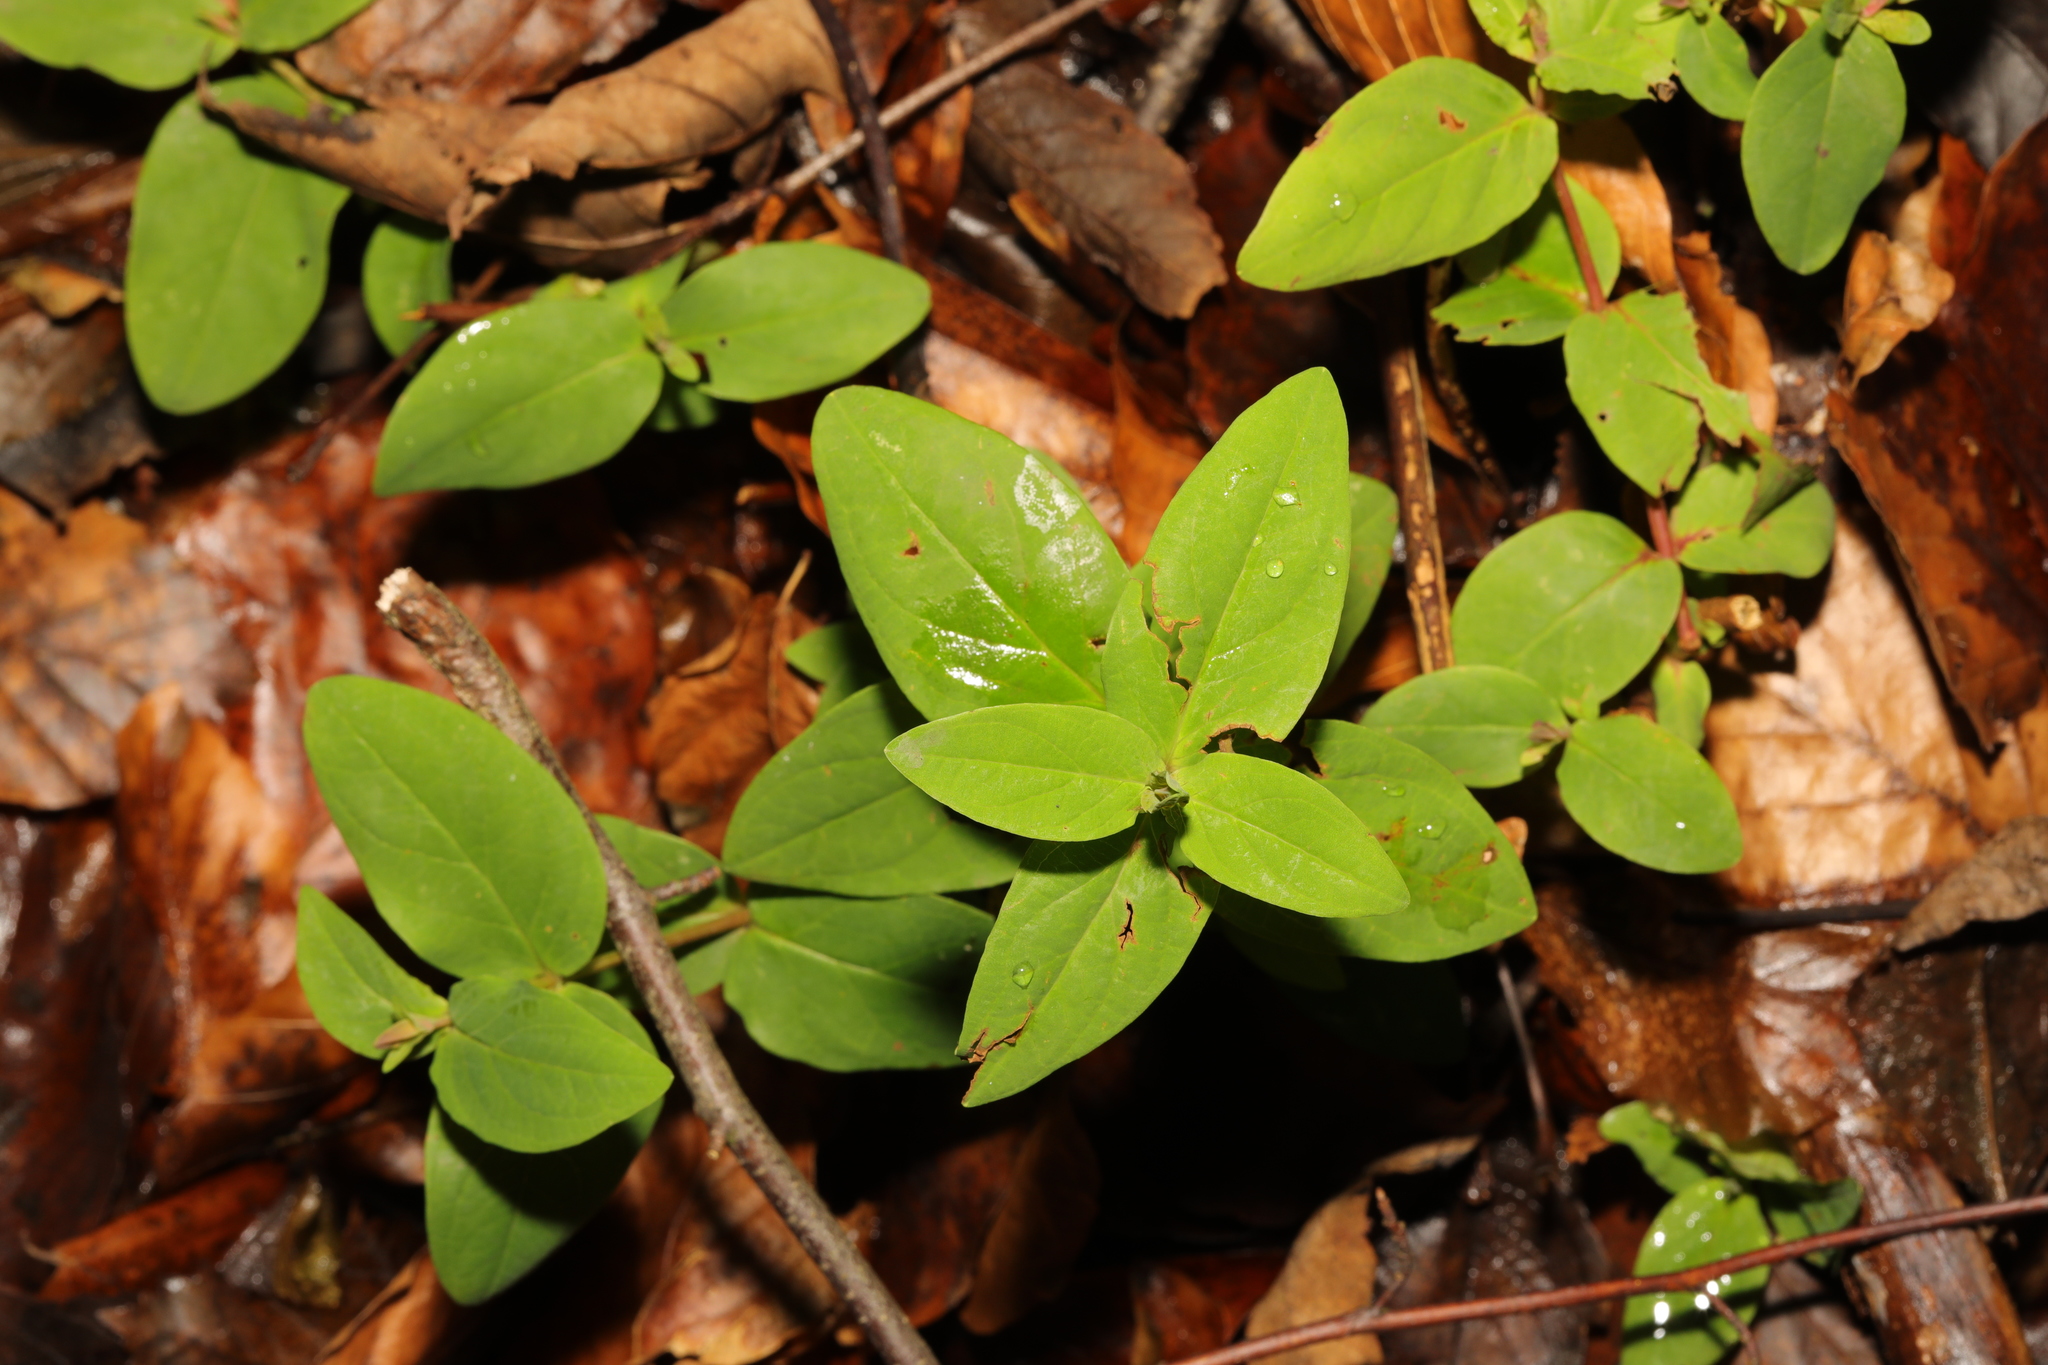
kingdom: Plantae
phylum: Tracheophyta
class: Magnoliopsida
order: Malpighiales
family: Hypericaceae
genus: Hypericum
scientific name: Hypericum androsaemum
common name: Sweet-amber
